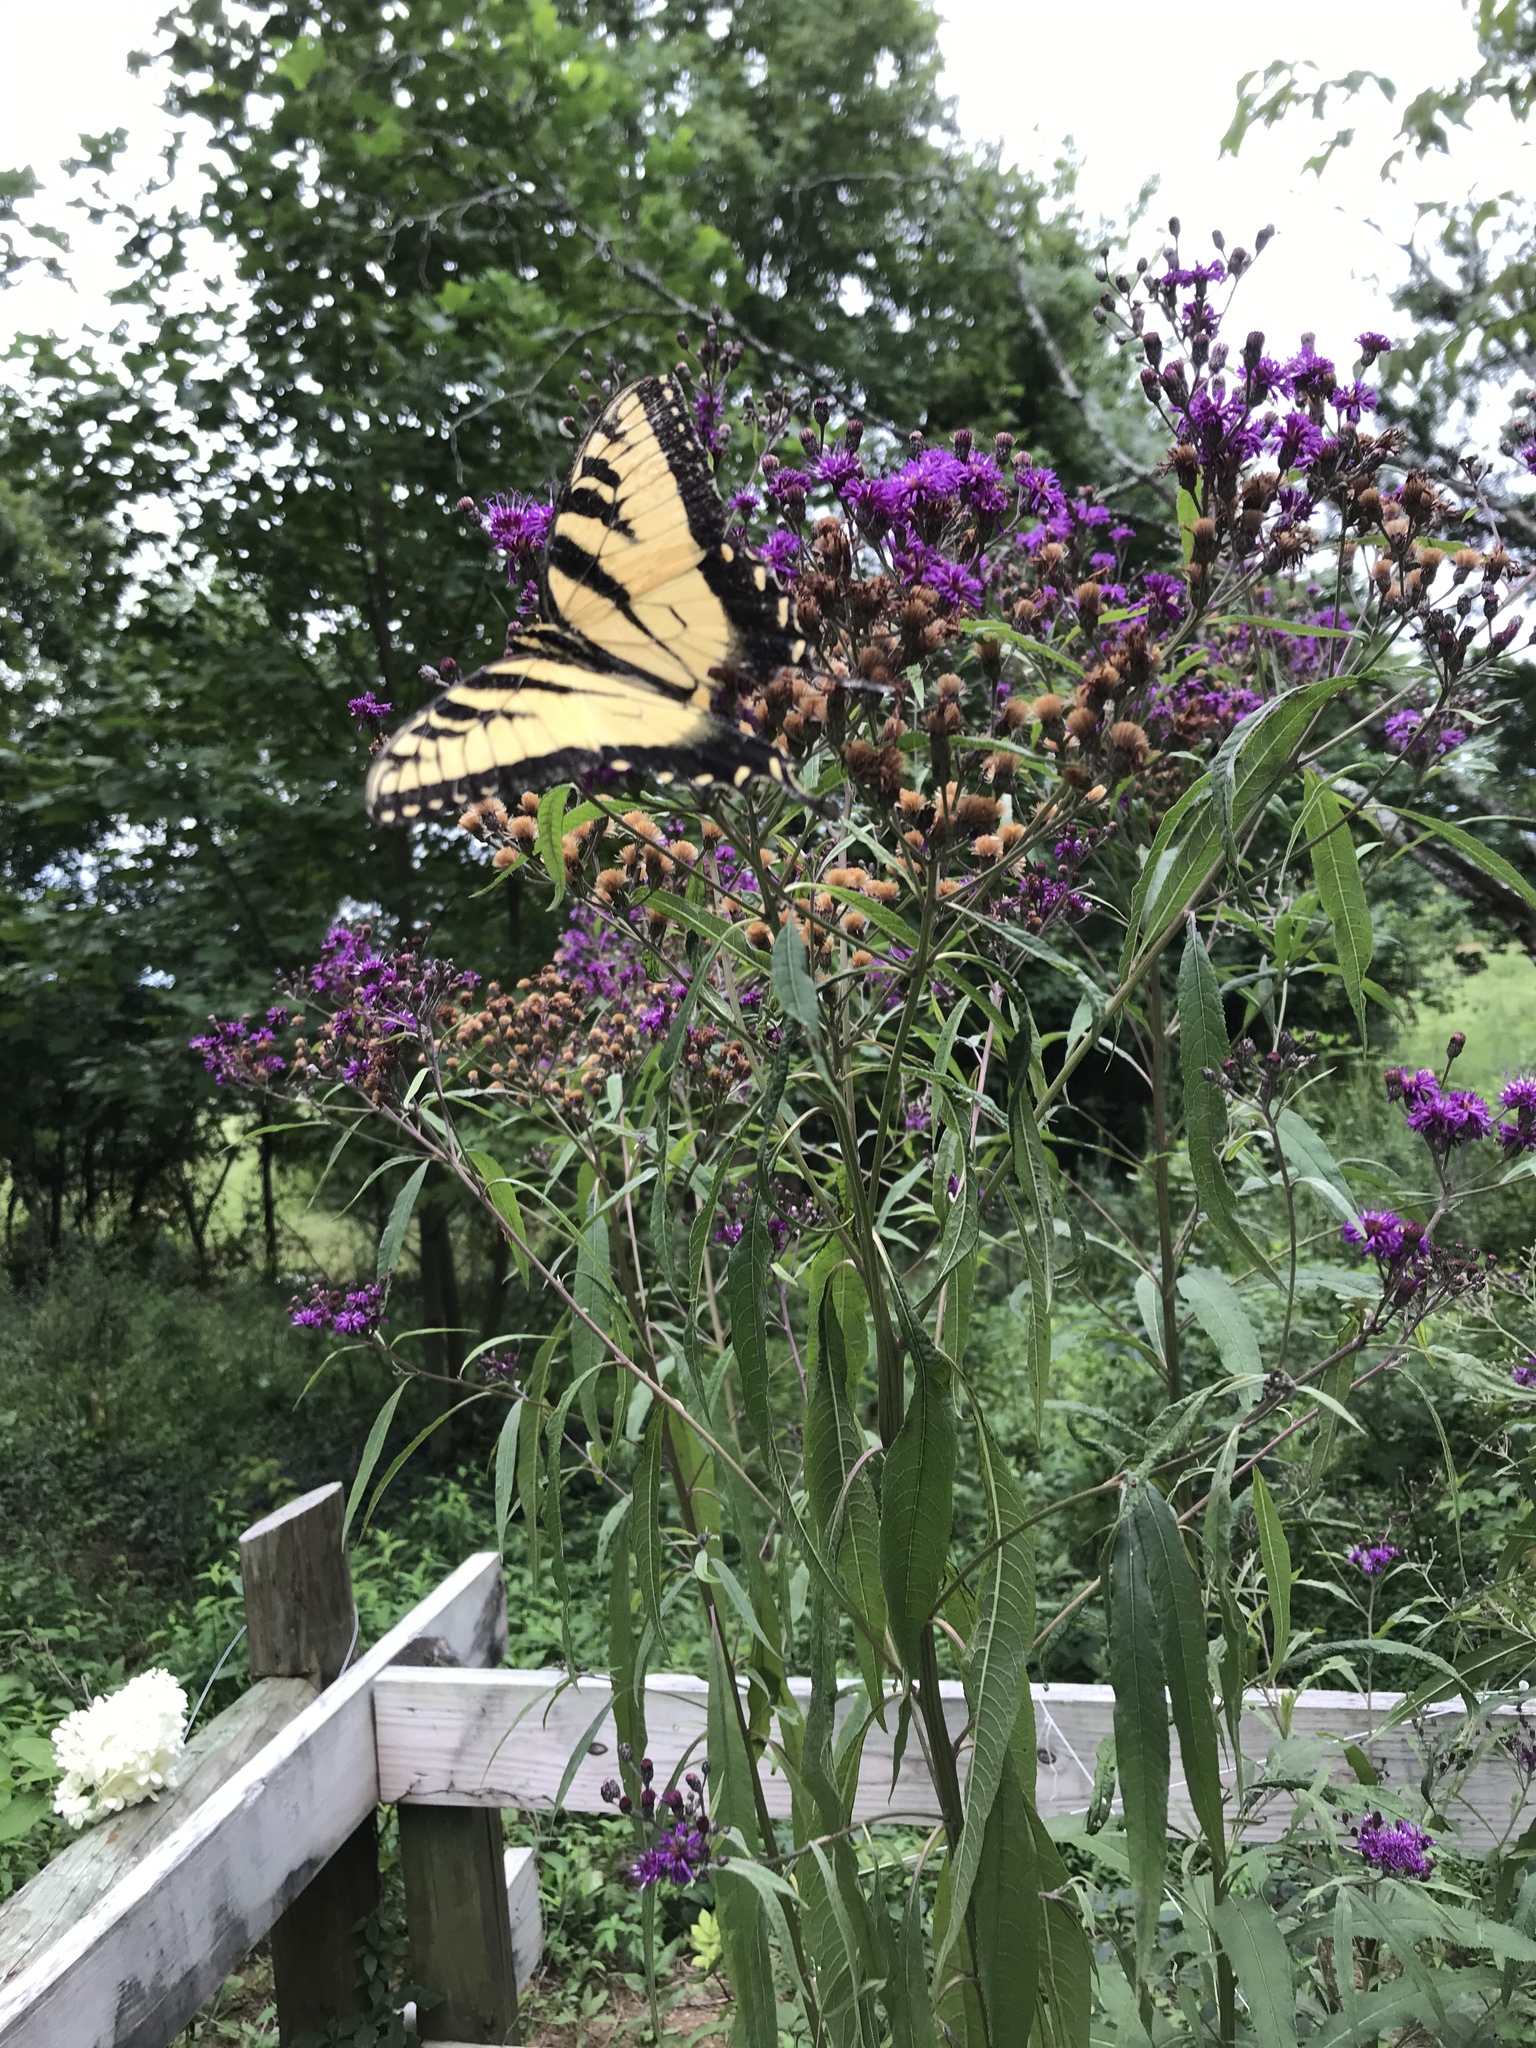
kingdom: Animalia
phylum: Arthropoda
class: Insecta
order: Lepidoptera
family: Papilionidae
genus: Papilio
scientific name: Papilio glaucus
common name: Tiger swallowtail
